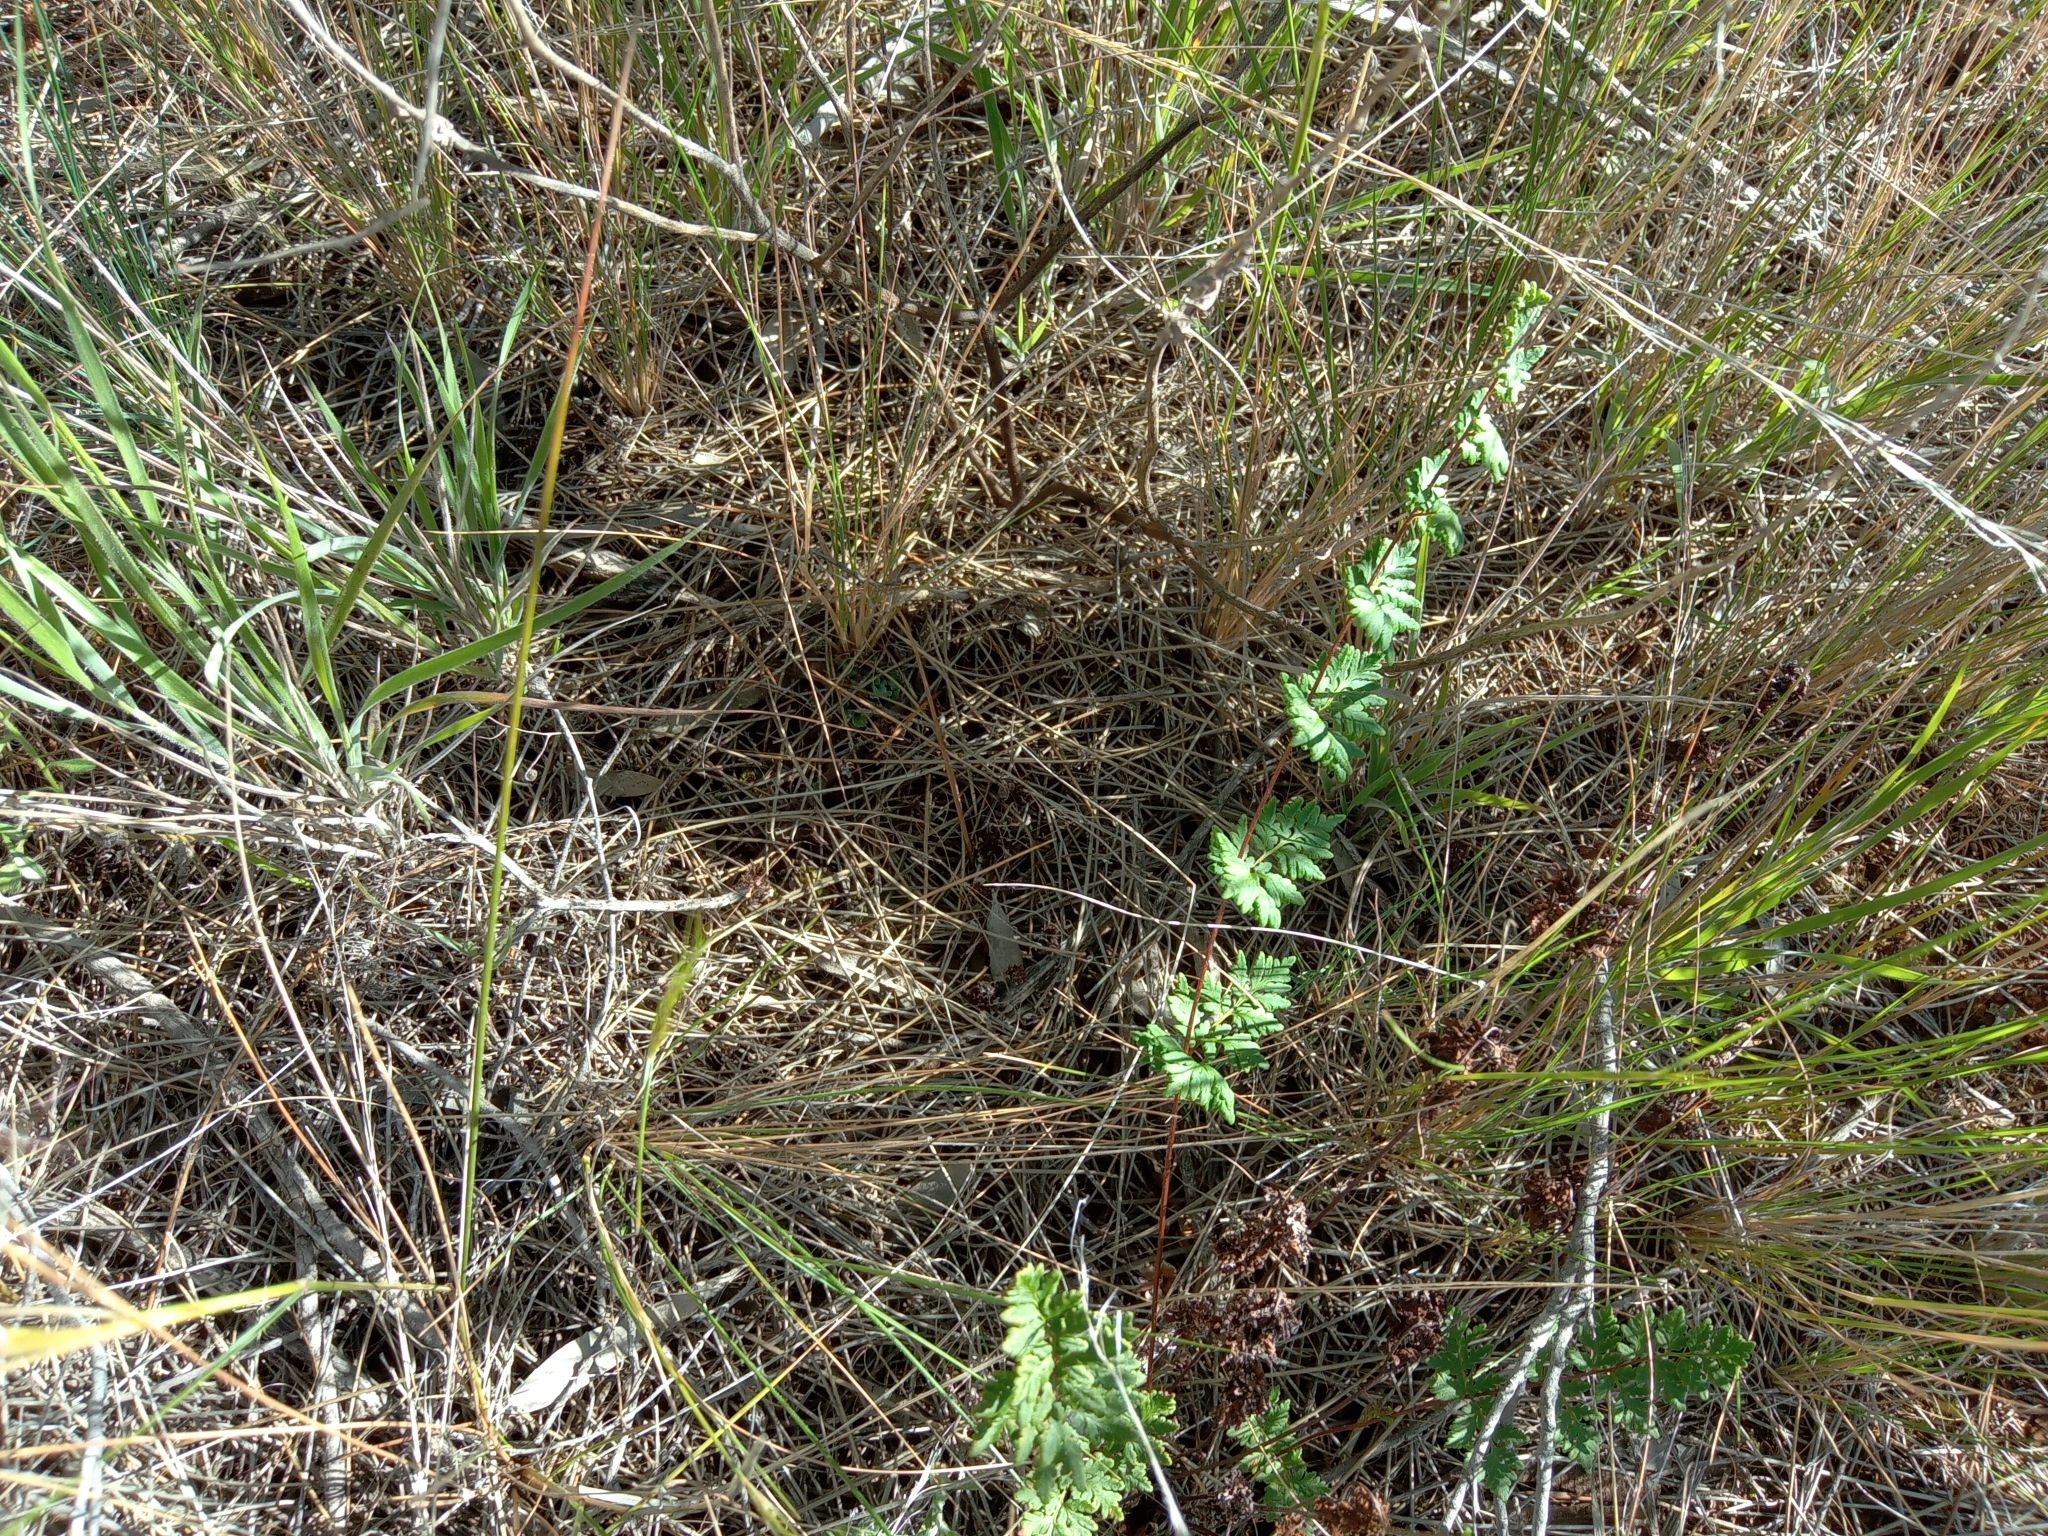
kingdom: Plantae
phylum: Tracheophyta
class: Polypodiopsida
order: Polypodiales
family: Pteridaceae
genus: Cheilanthes
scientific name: Cheilanthes sieberi
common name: Mulga fern
